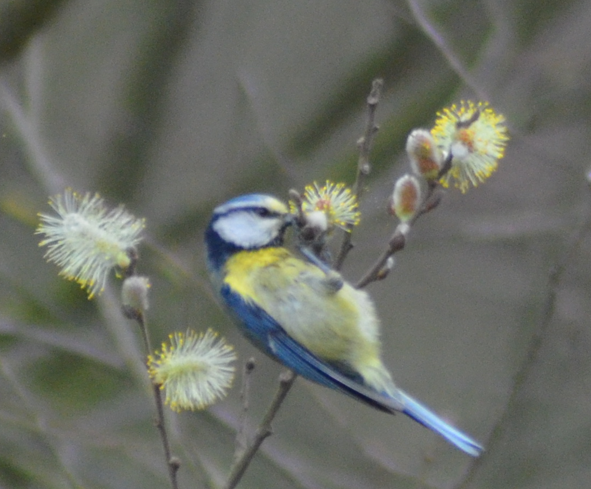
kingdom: Animalia
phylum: Chordata
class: Aves
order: Passeriformes
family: Paridae
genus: Cyanistes
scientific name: Cyanistes caeruleus
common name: Eurasian blue tit
